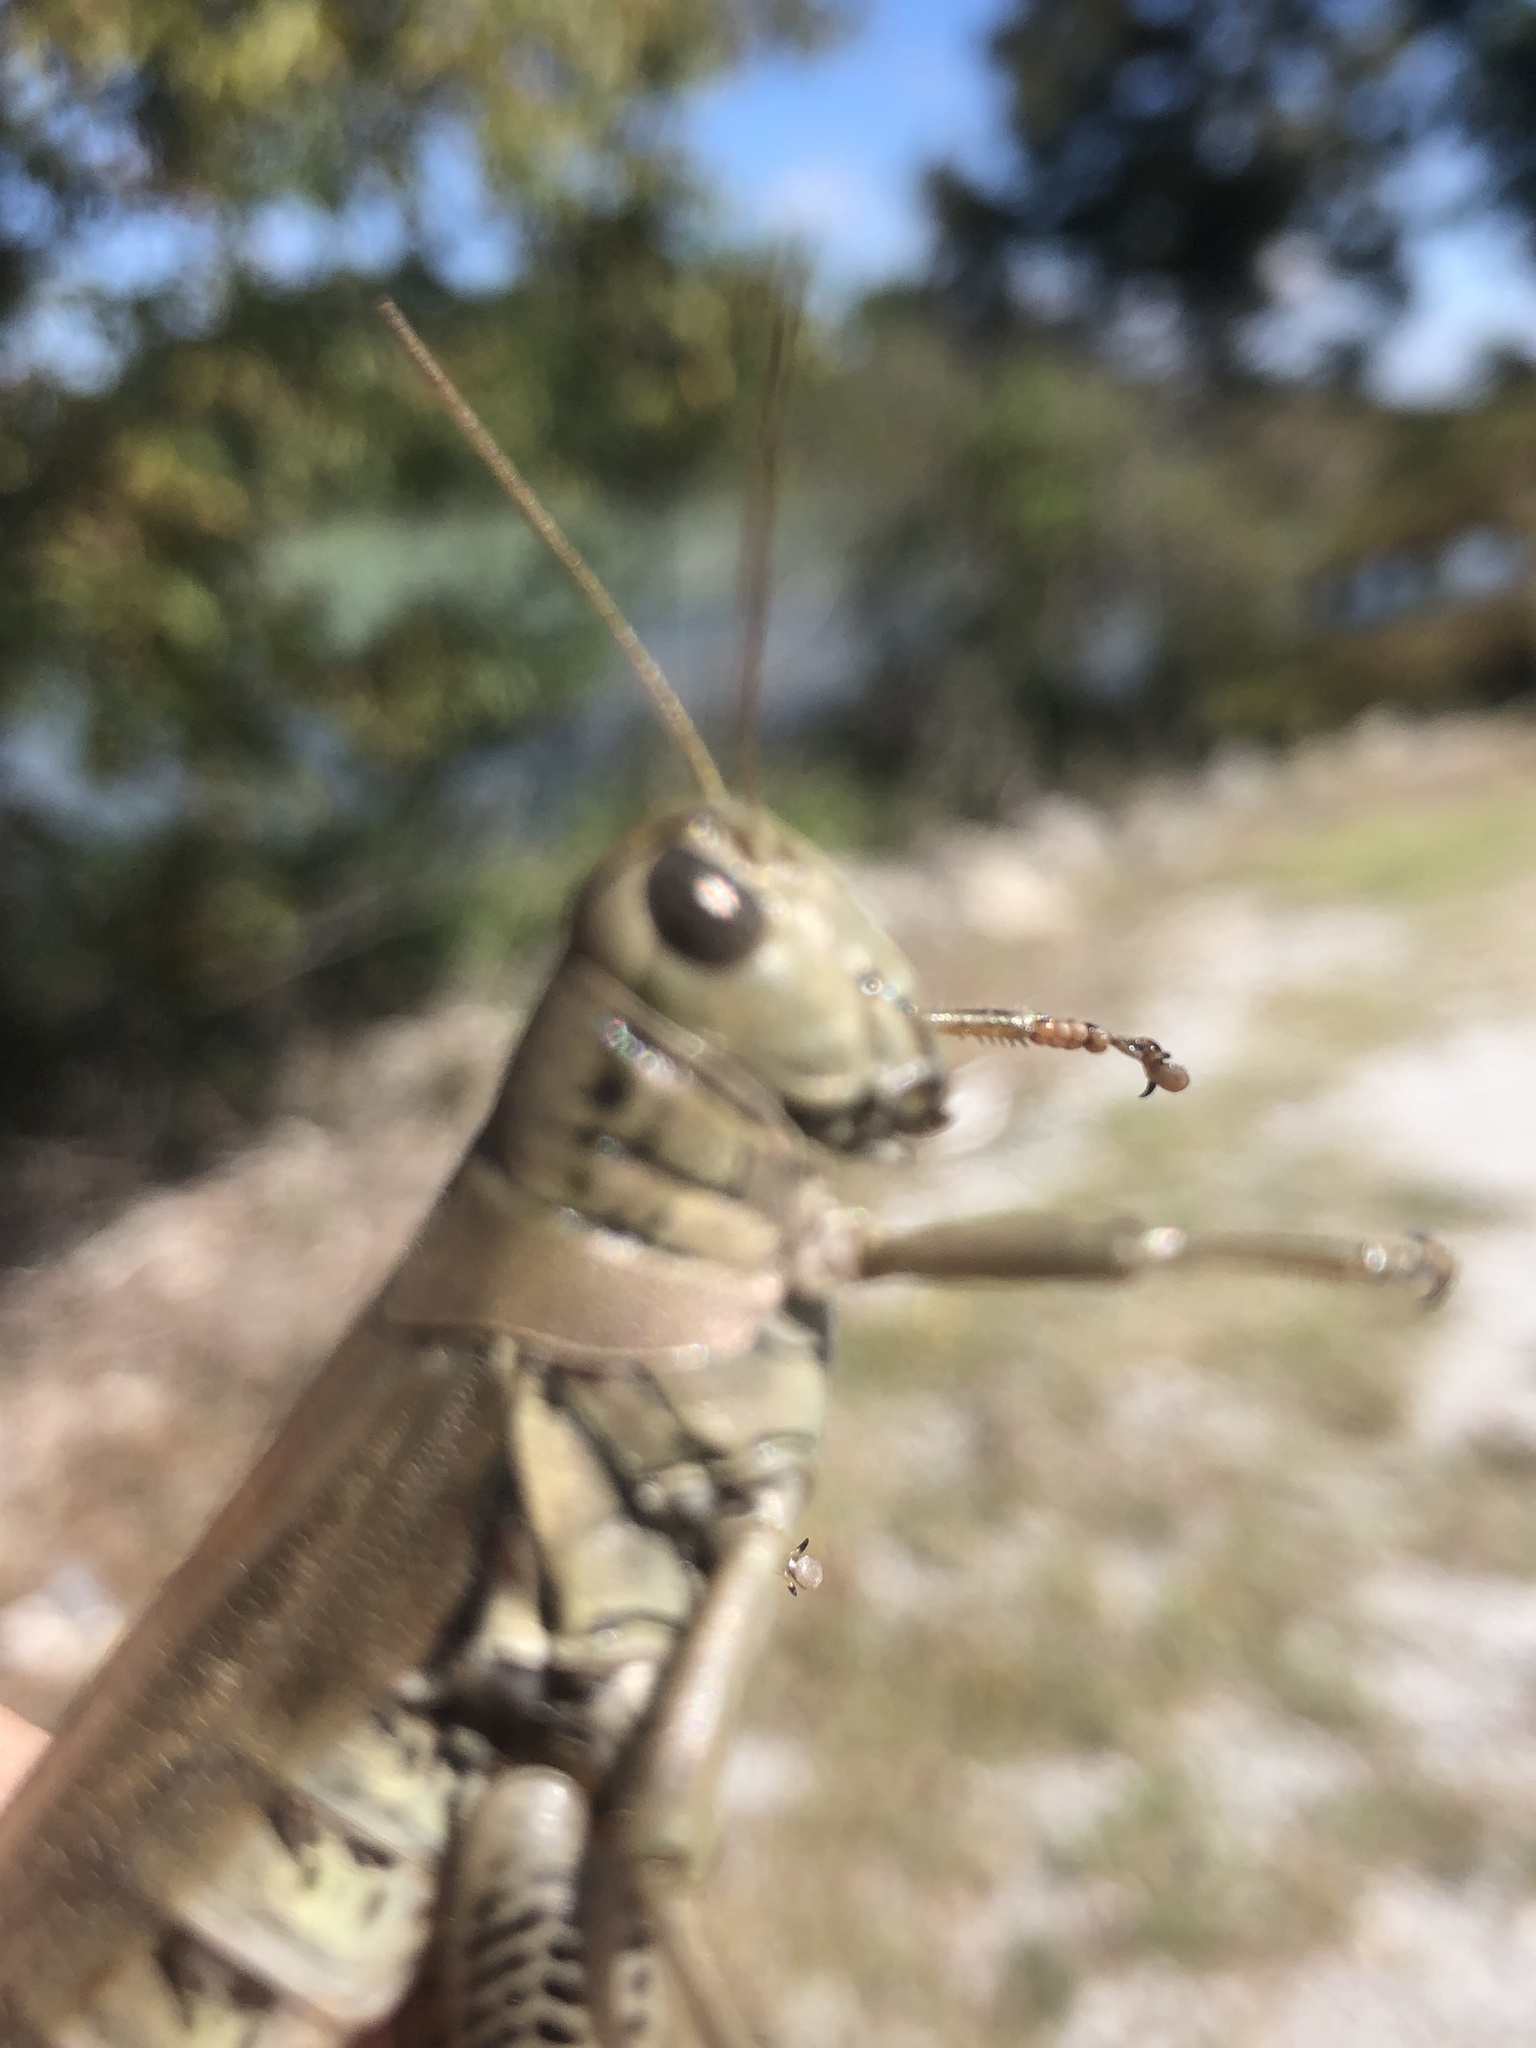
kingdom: Animalia
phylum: Arthropoda
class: Insecta
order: Orthoptera
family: Acrididae
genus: Melanoplus
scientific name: Melanoplus differentialis
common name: Differential grasshopper
